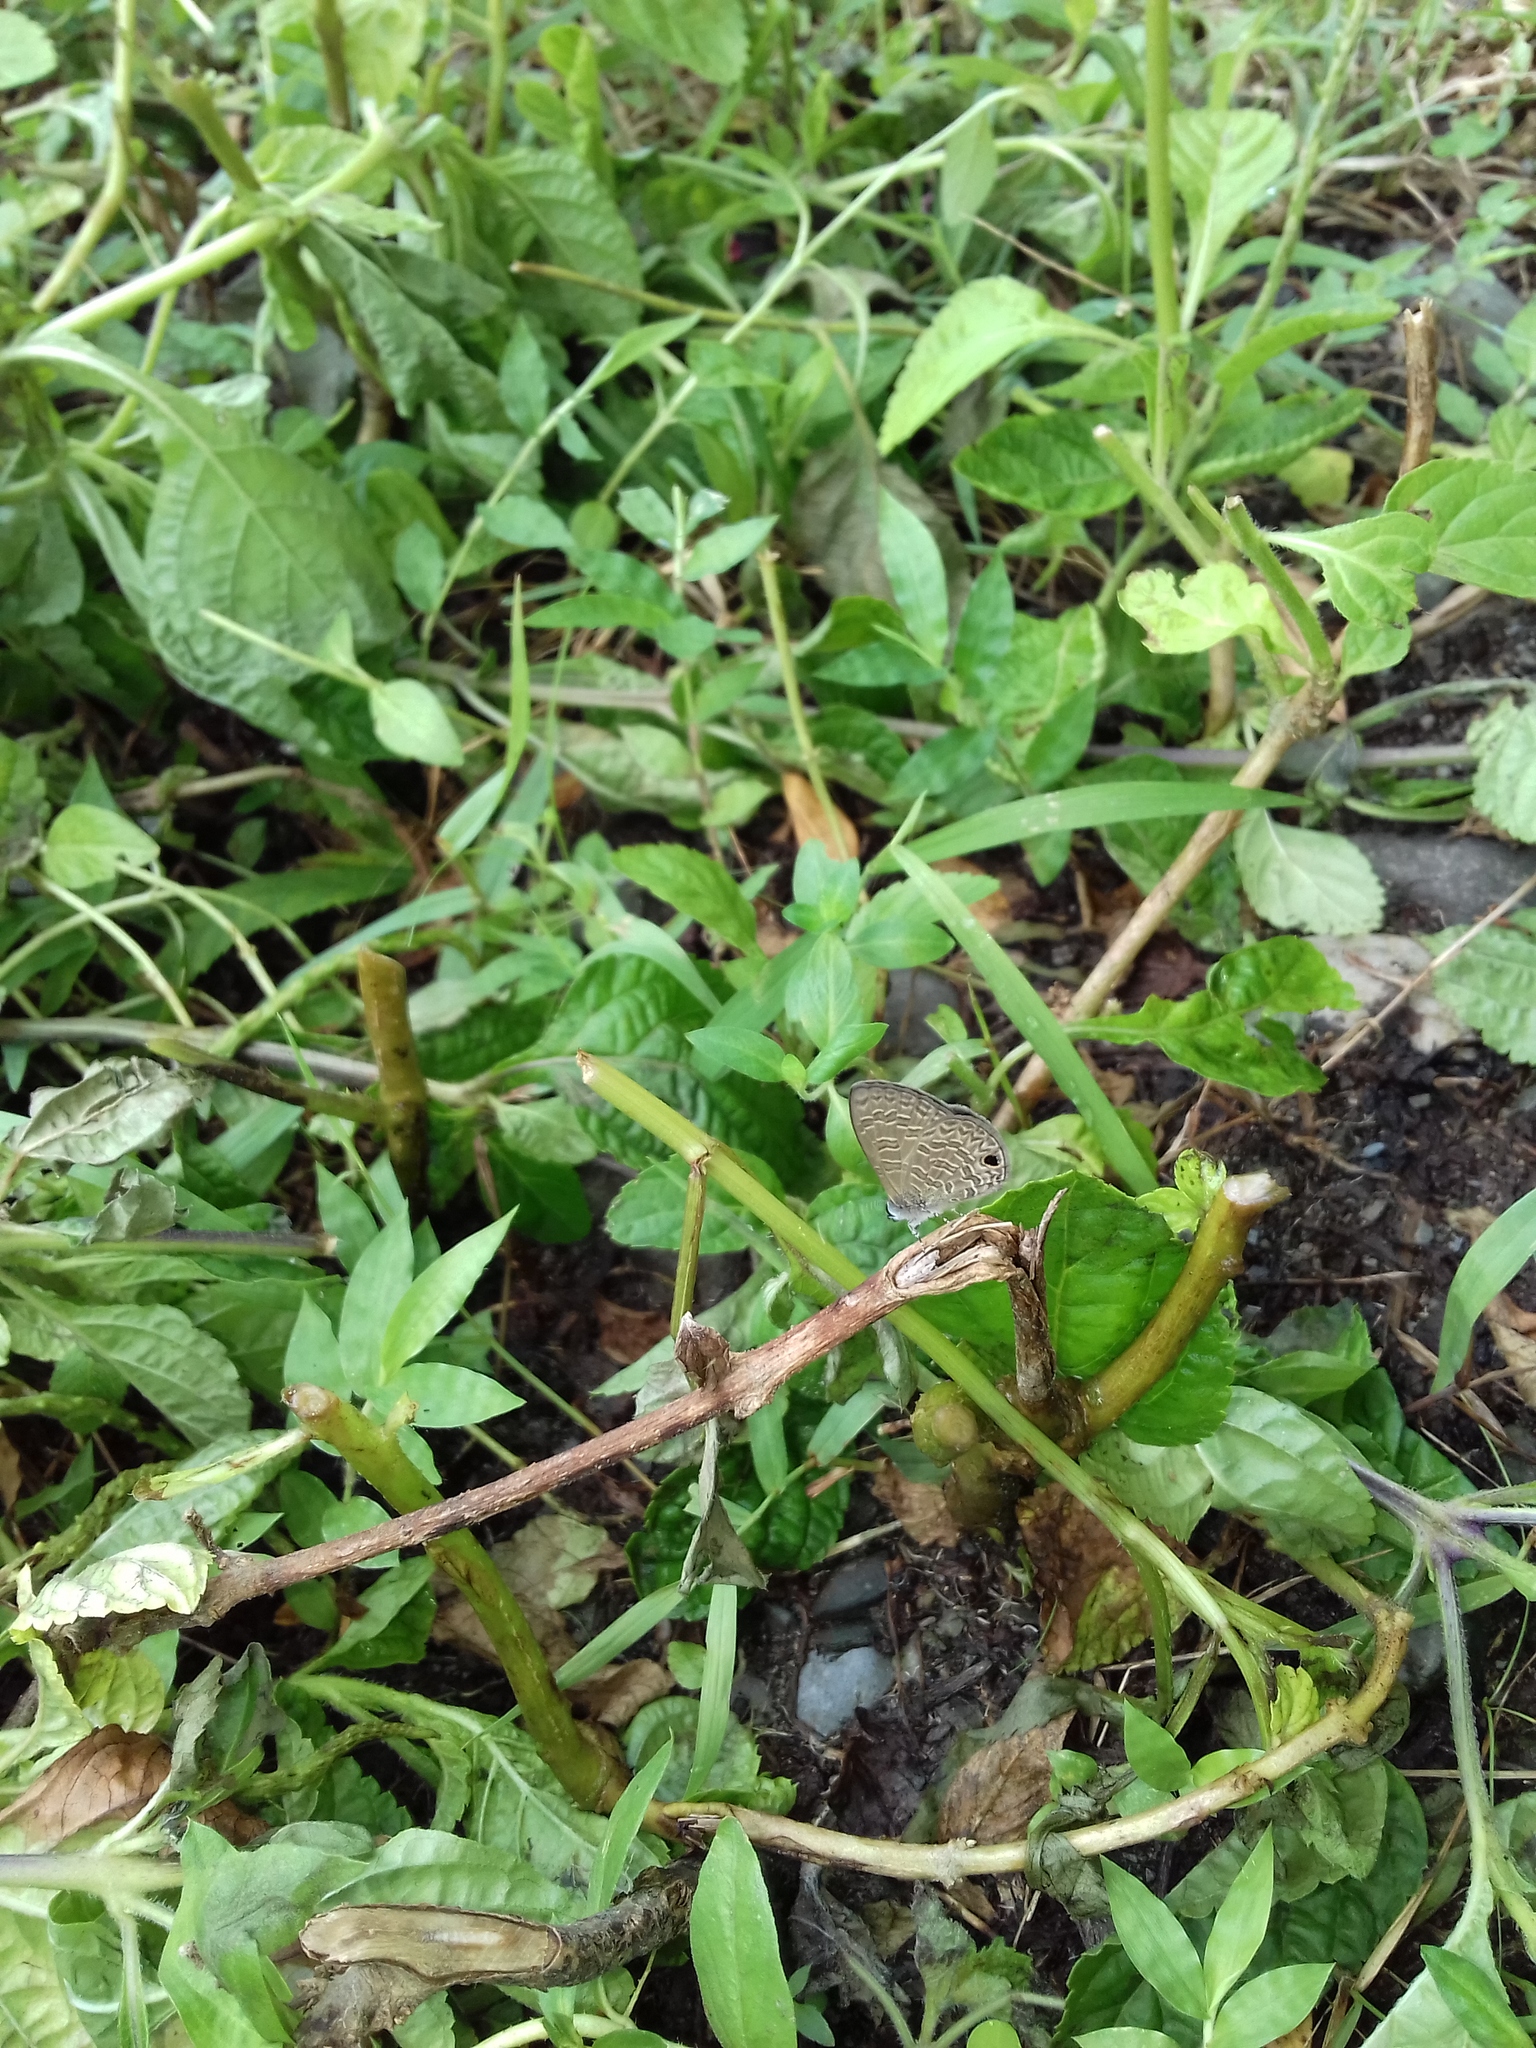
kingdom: Animalia
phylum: Arthropoda
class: Insecta
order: Lepidoptera
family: Lycaenidae
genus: Prosotas
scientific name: Prosotas dubiosa
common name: Tailless lineblue
